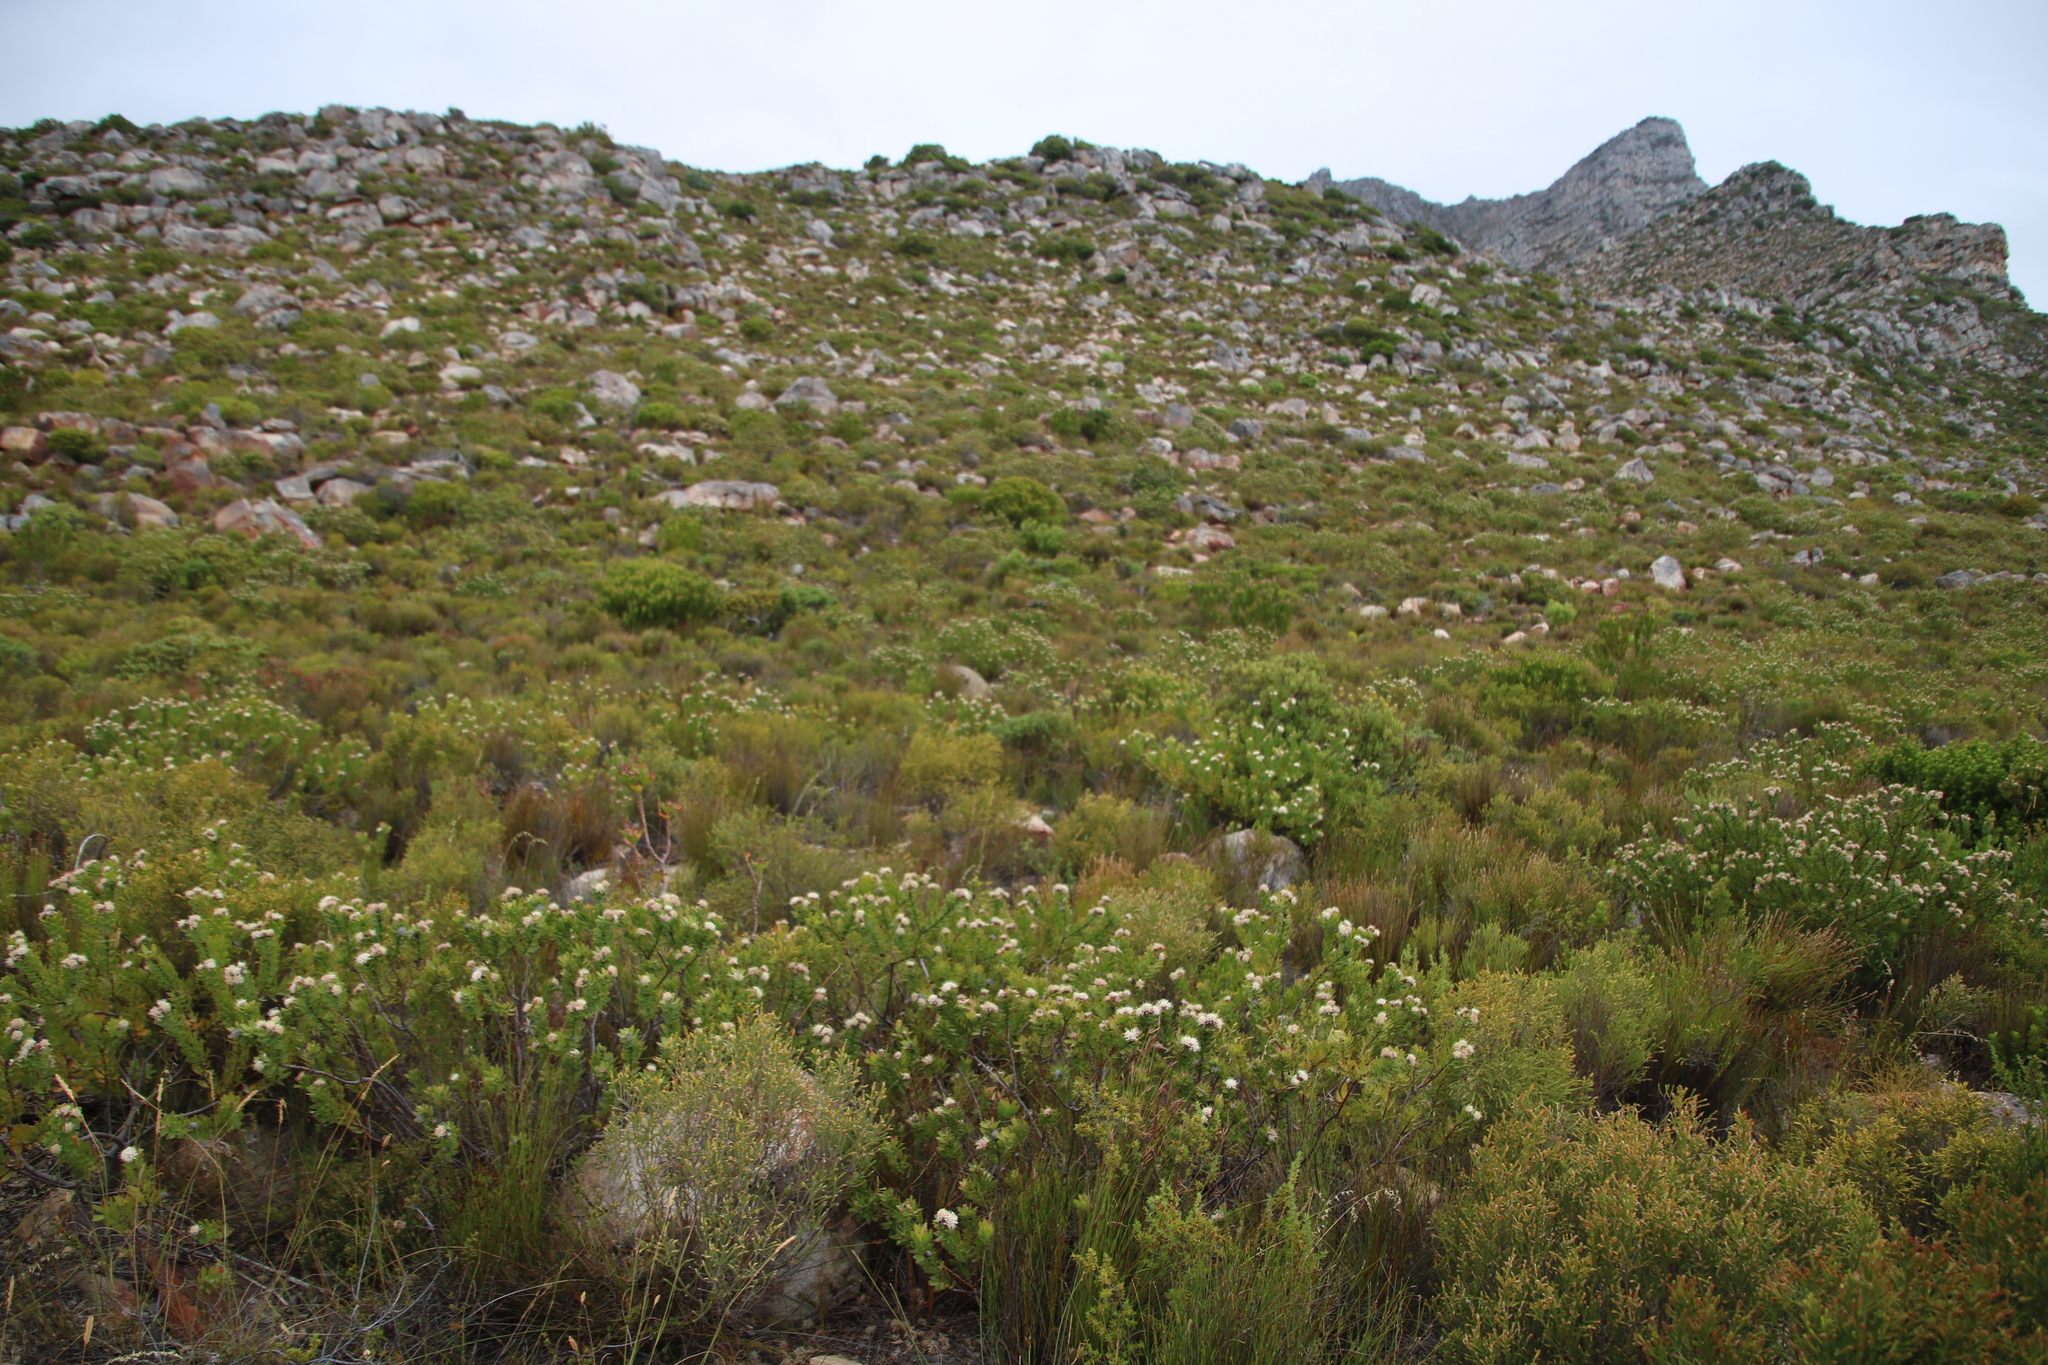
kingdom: Plantae
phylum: Tracheophyta
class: Magnoliopsida
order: Proteales
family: Proteaceae
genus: Leucospermum
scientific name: Leucospermum bolusii
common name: Gordon's bay pincushion
